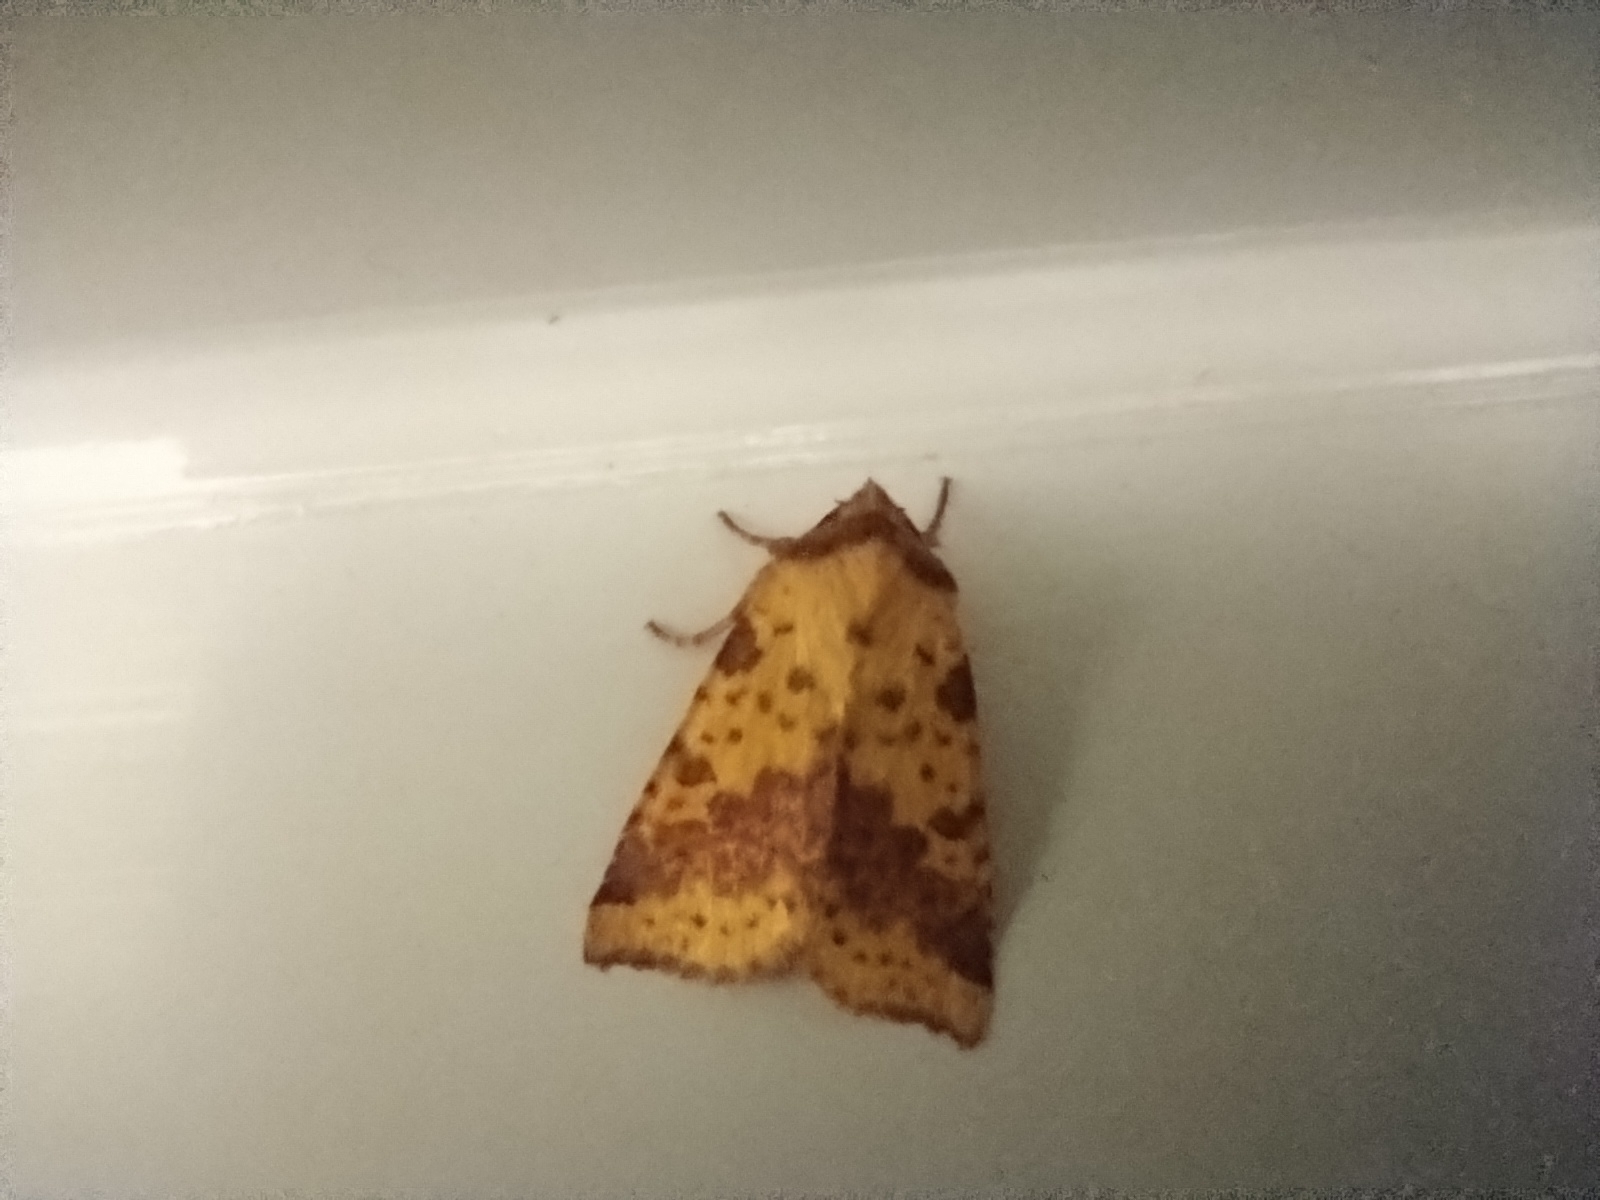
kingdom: Animalia
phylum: Arthropoda
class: Insecta
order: Lepidoptera
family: Noctuidae
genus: Xanthia
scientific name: Xanthia togata
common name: Pink-barred sallow
